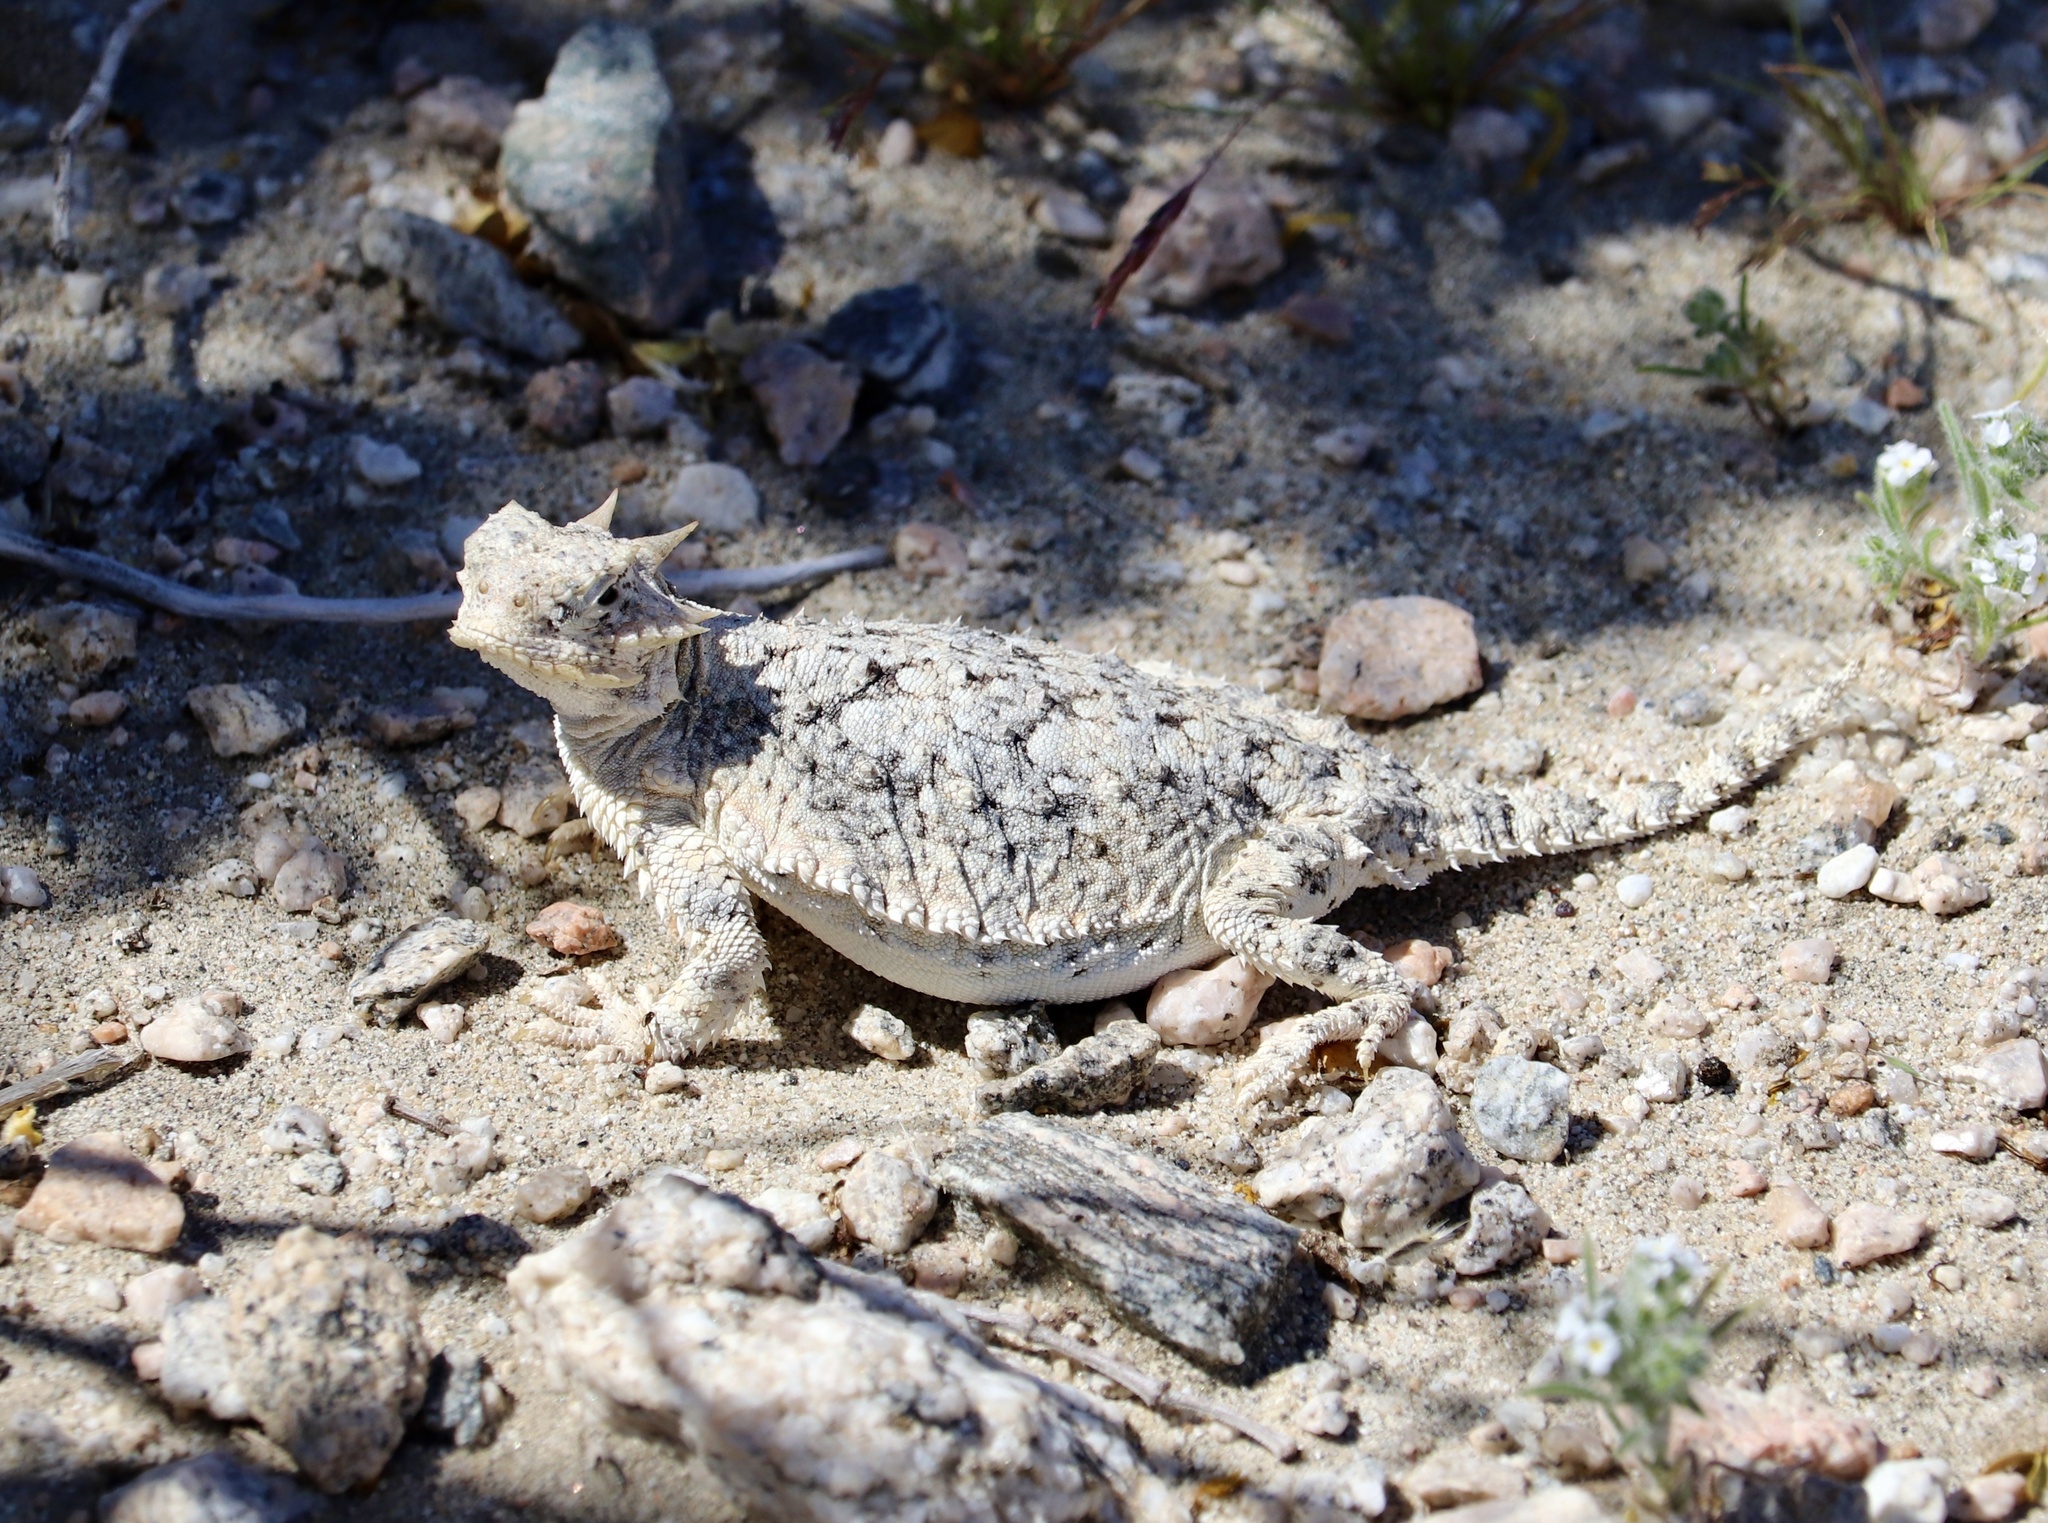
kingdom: Animalia
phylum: Chordata
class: Squamata
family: Phrynosomatidae
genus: Phrynosoma
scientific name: Phrynosoma platyrhinos
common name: Desert horned lizard
